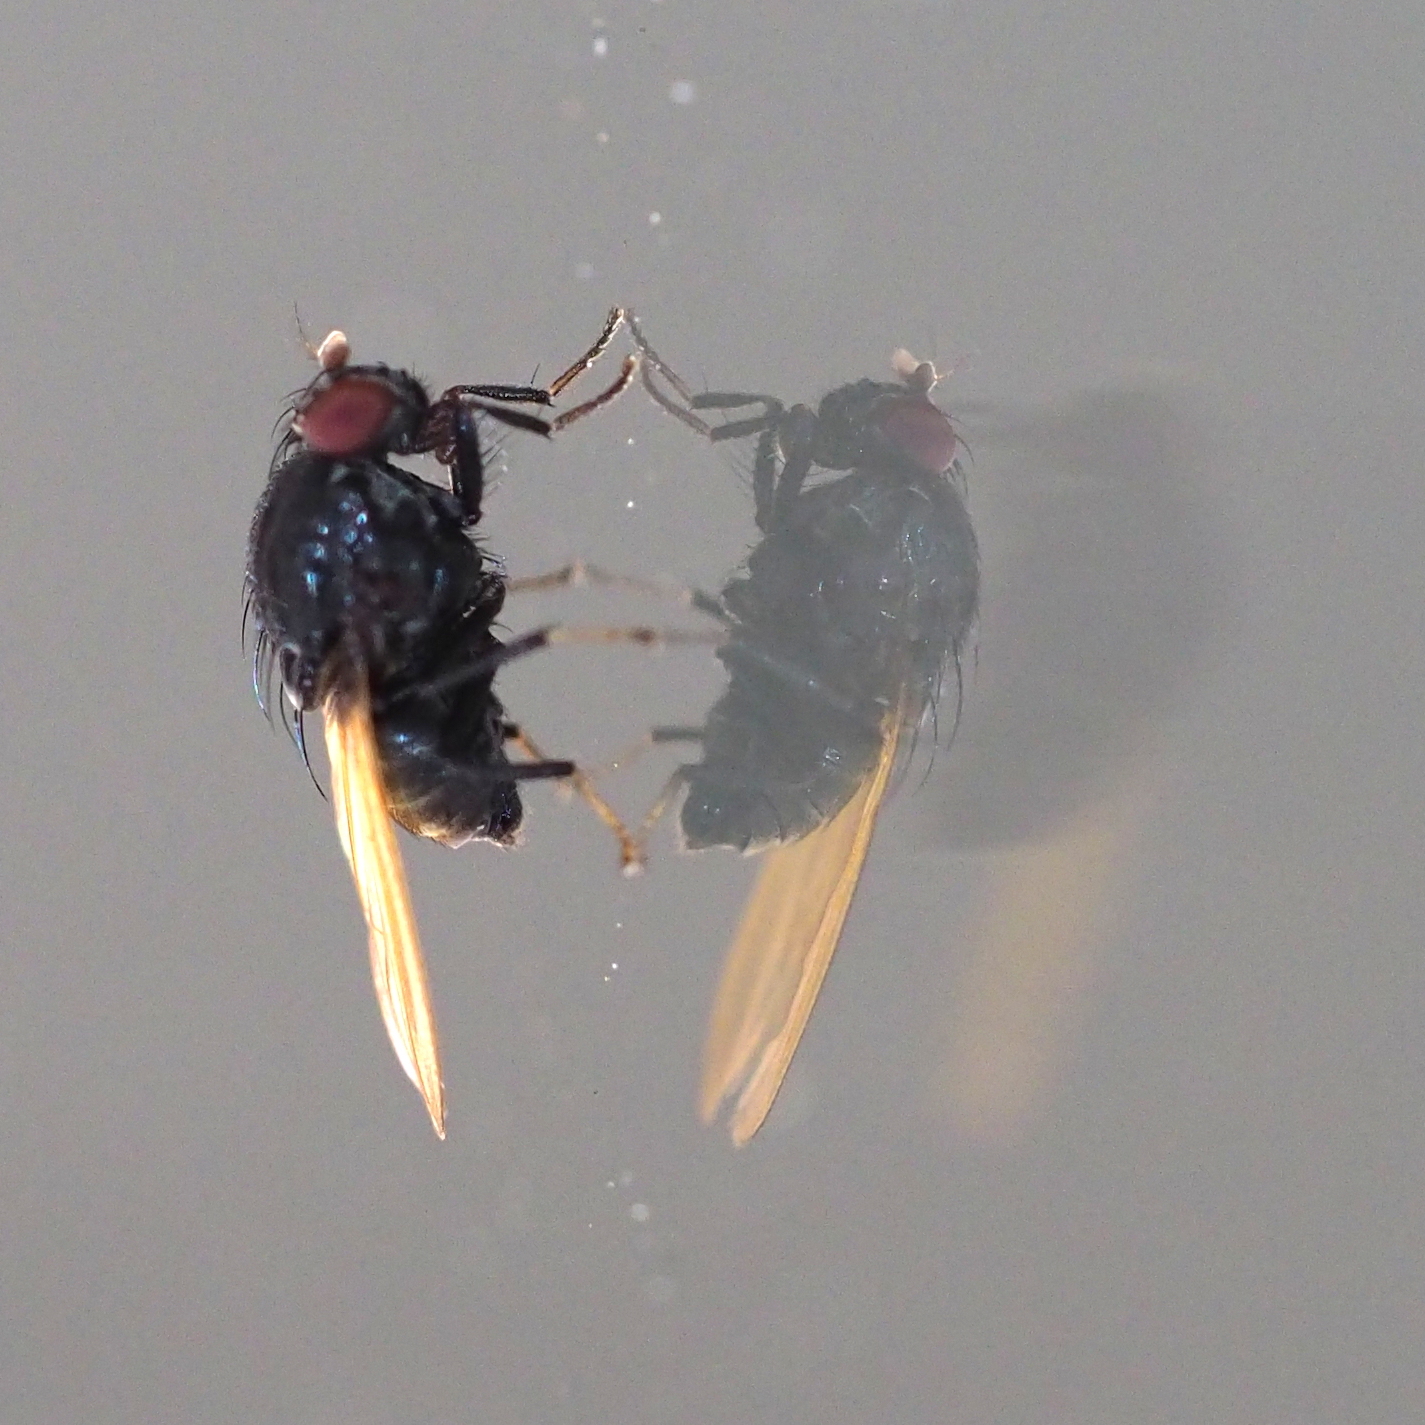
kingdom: Animalia
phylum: Arthropoda
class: Insecta
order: Diptera
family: Lauxaniidae
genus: Minettia
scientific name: Minettia longipennis
